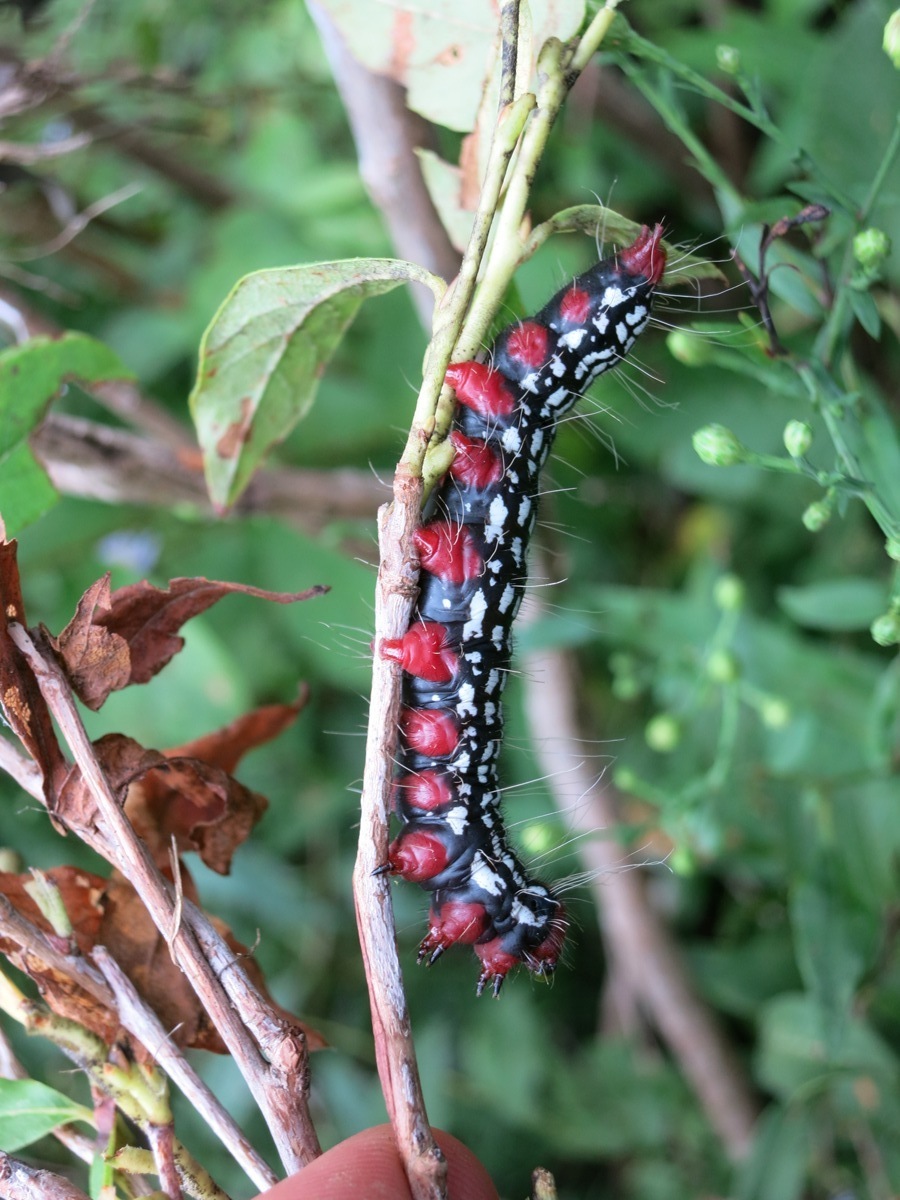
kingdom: Animalia
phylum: Arthropoda
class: Insecta
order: Lepidoptera
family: Notodontidae
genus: Datana
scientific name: Datana major
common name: Azalea caterpillar
